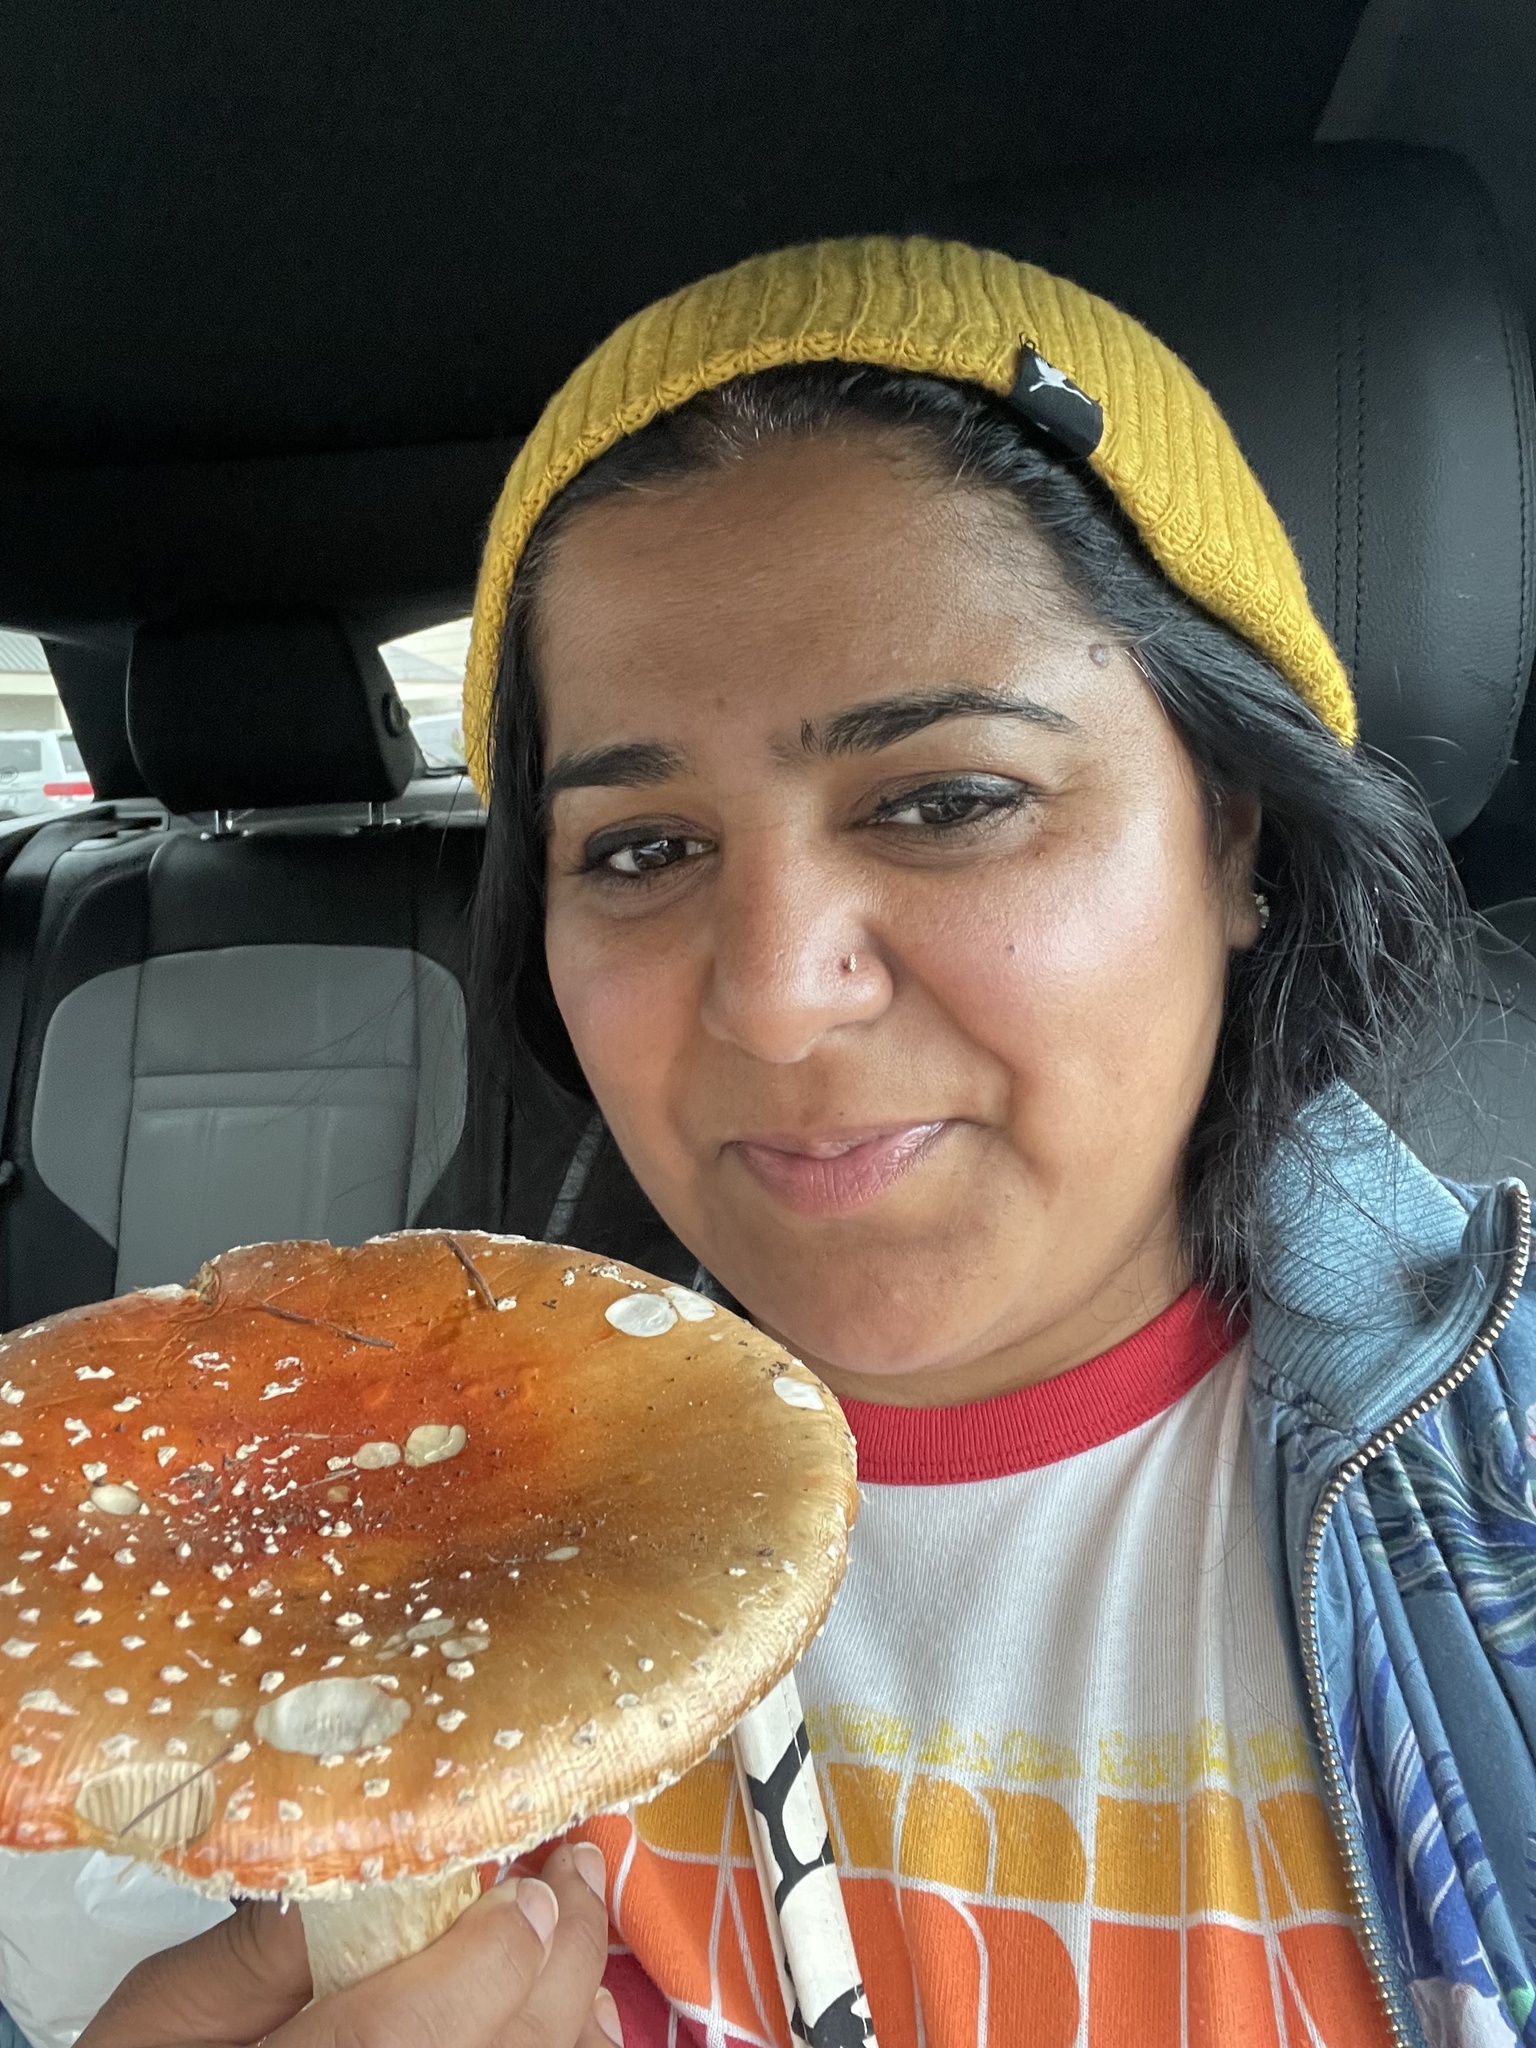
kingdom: Fungi
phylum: Basidiomycota
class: Agaricomycetes
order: Agaricales
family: Amanitaceae
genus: Amanita
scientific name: Amanita muscaria
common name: Fly agaric
